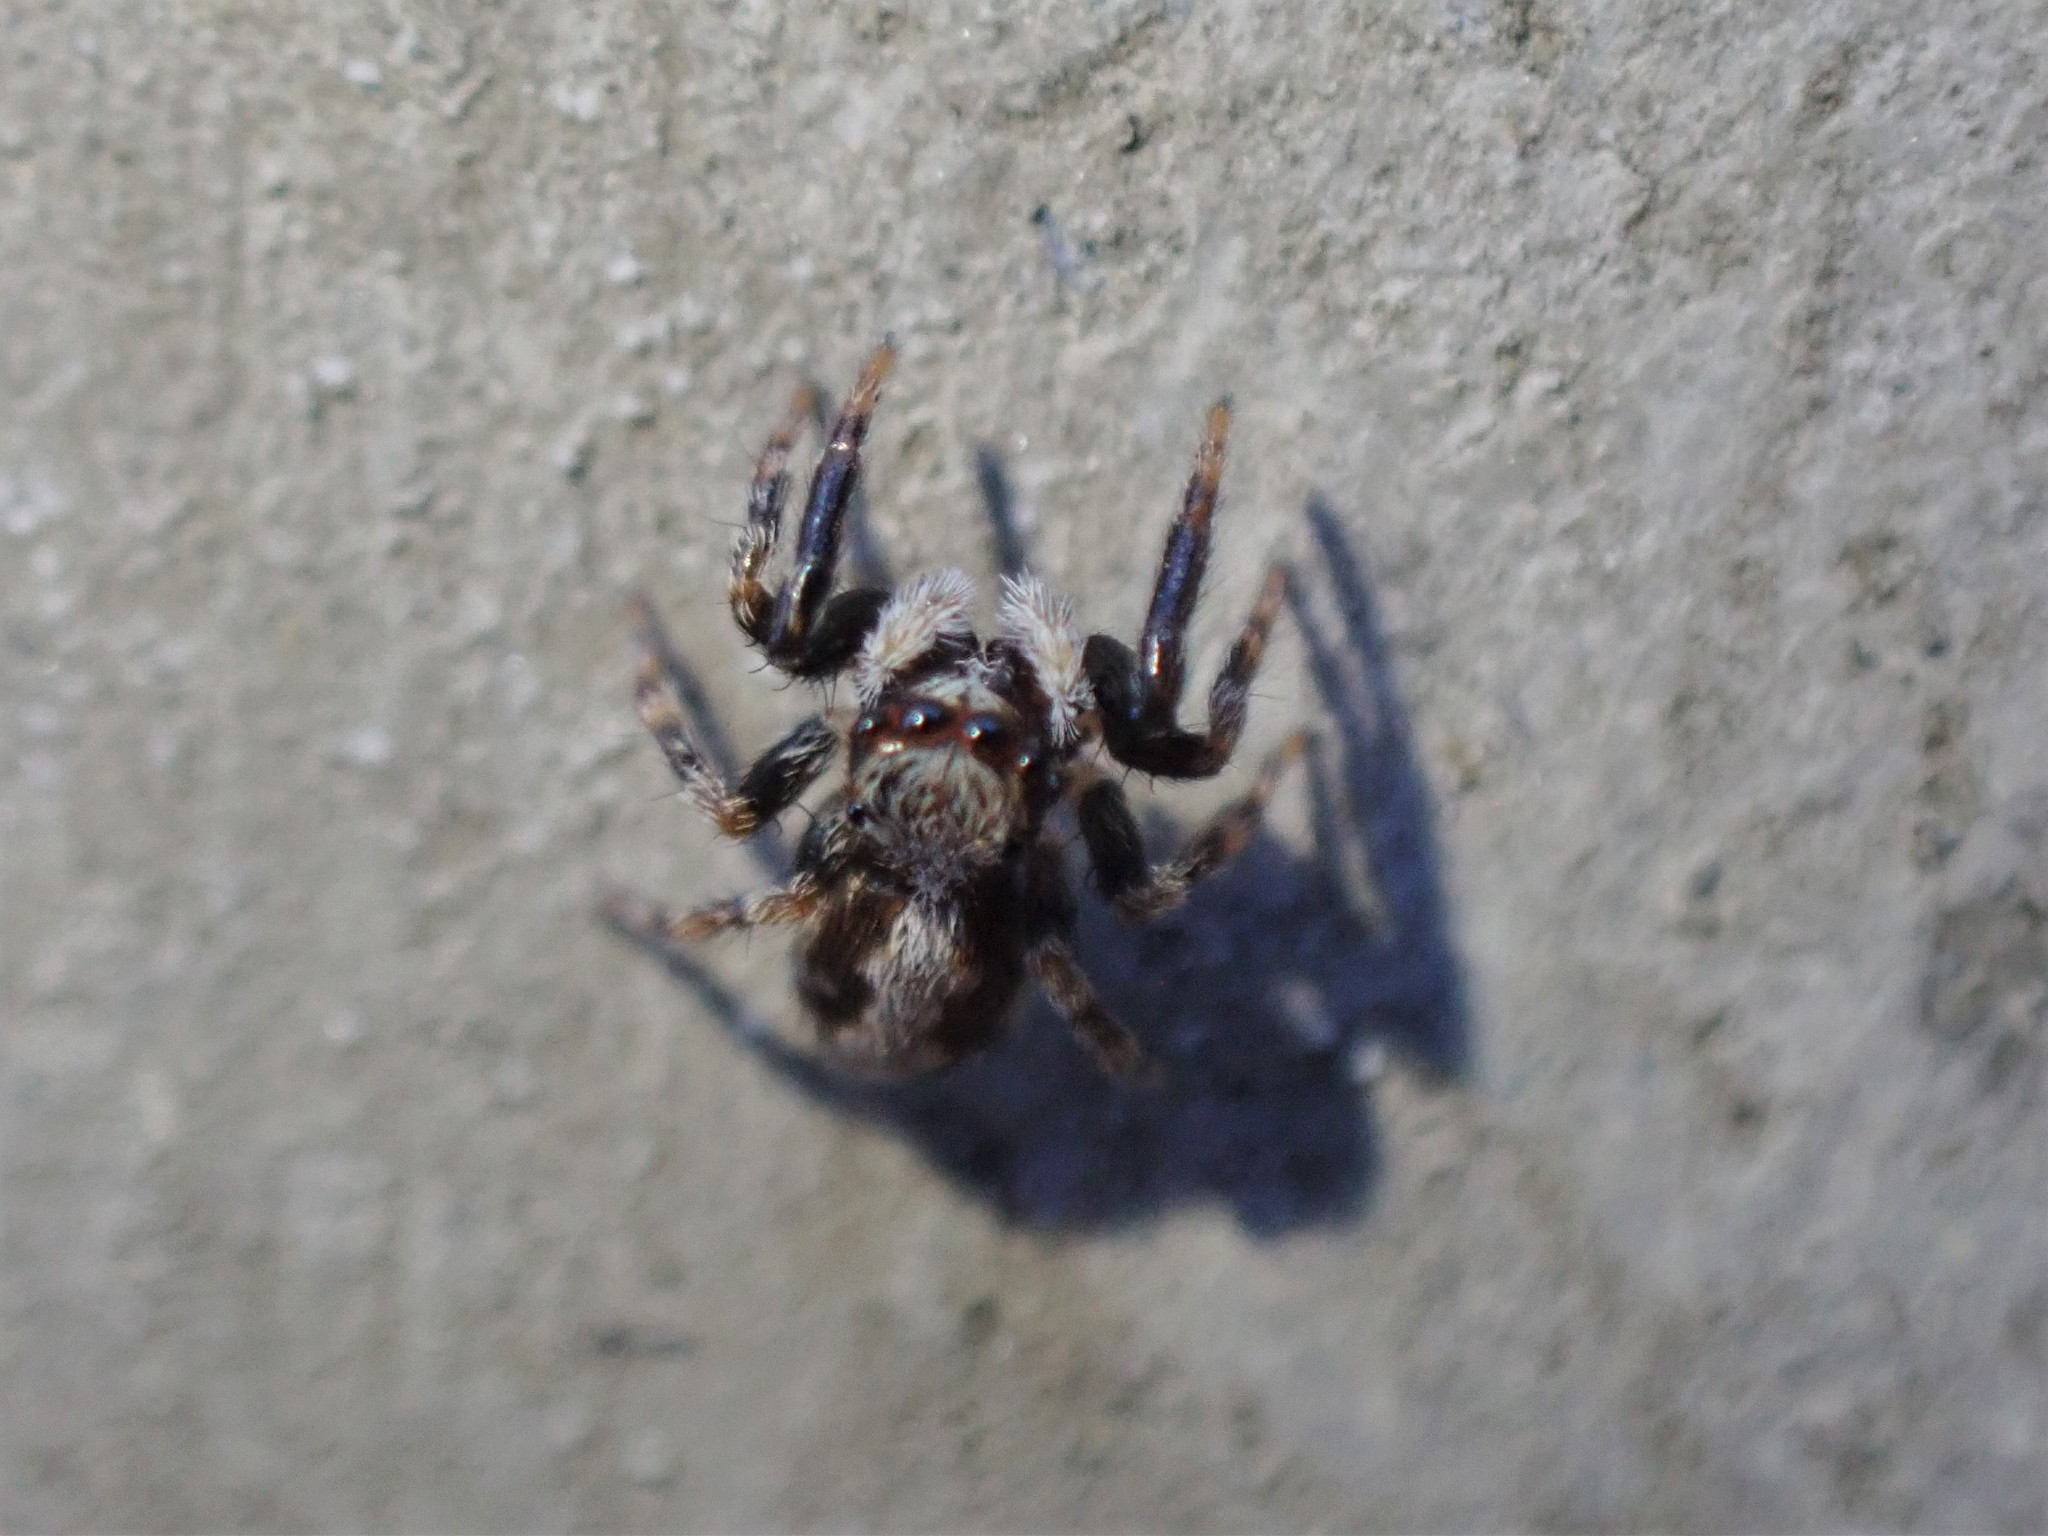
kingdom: Animalia
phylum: Arthropoda
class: Arachnida
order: Araneae
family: Salticidae
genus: Pseudeuophrys
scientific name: Pseudeuophrys lanigera
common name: Jumping spider
